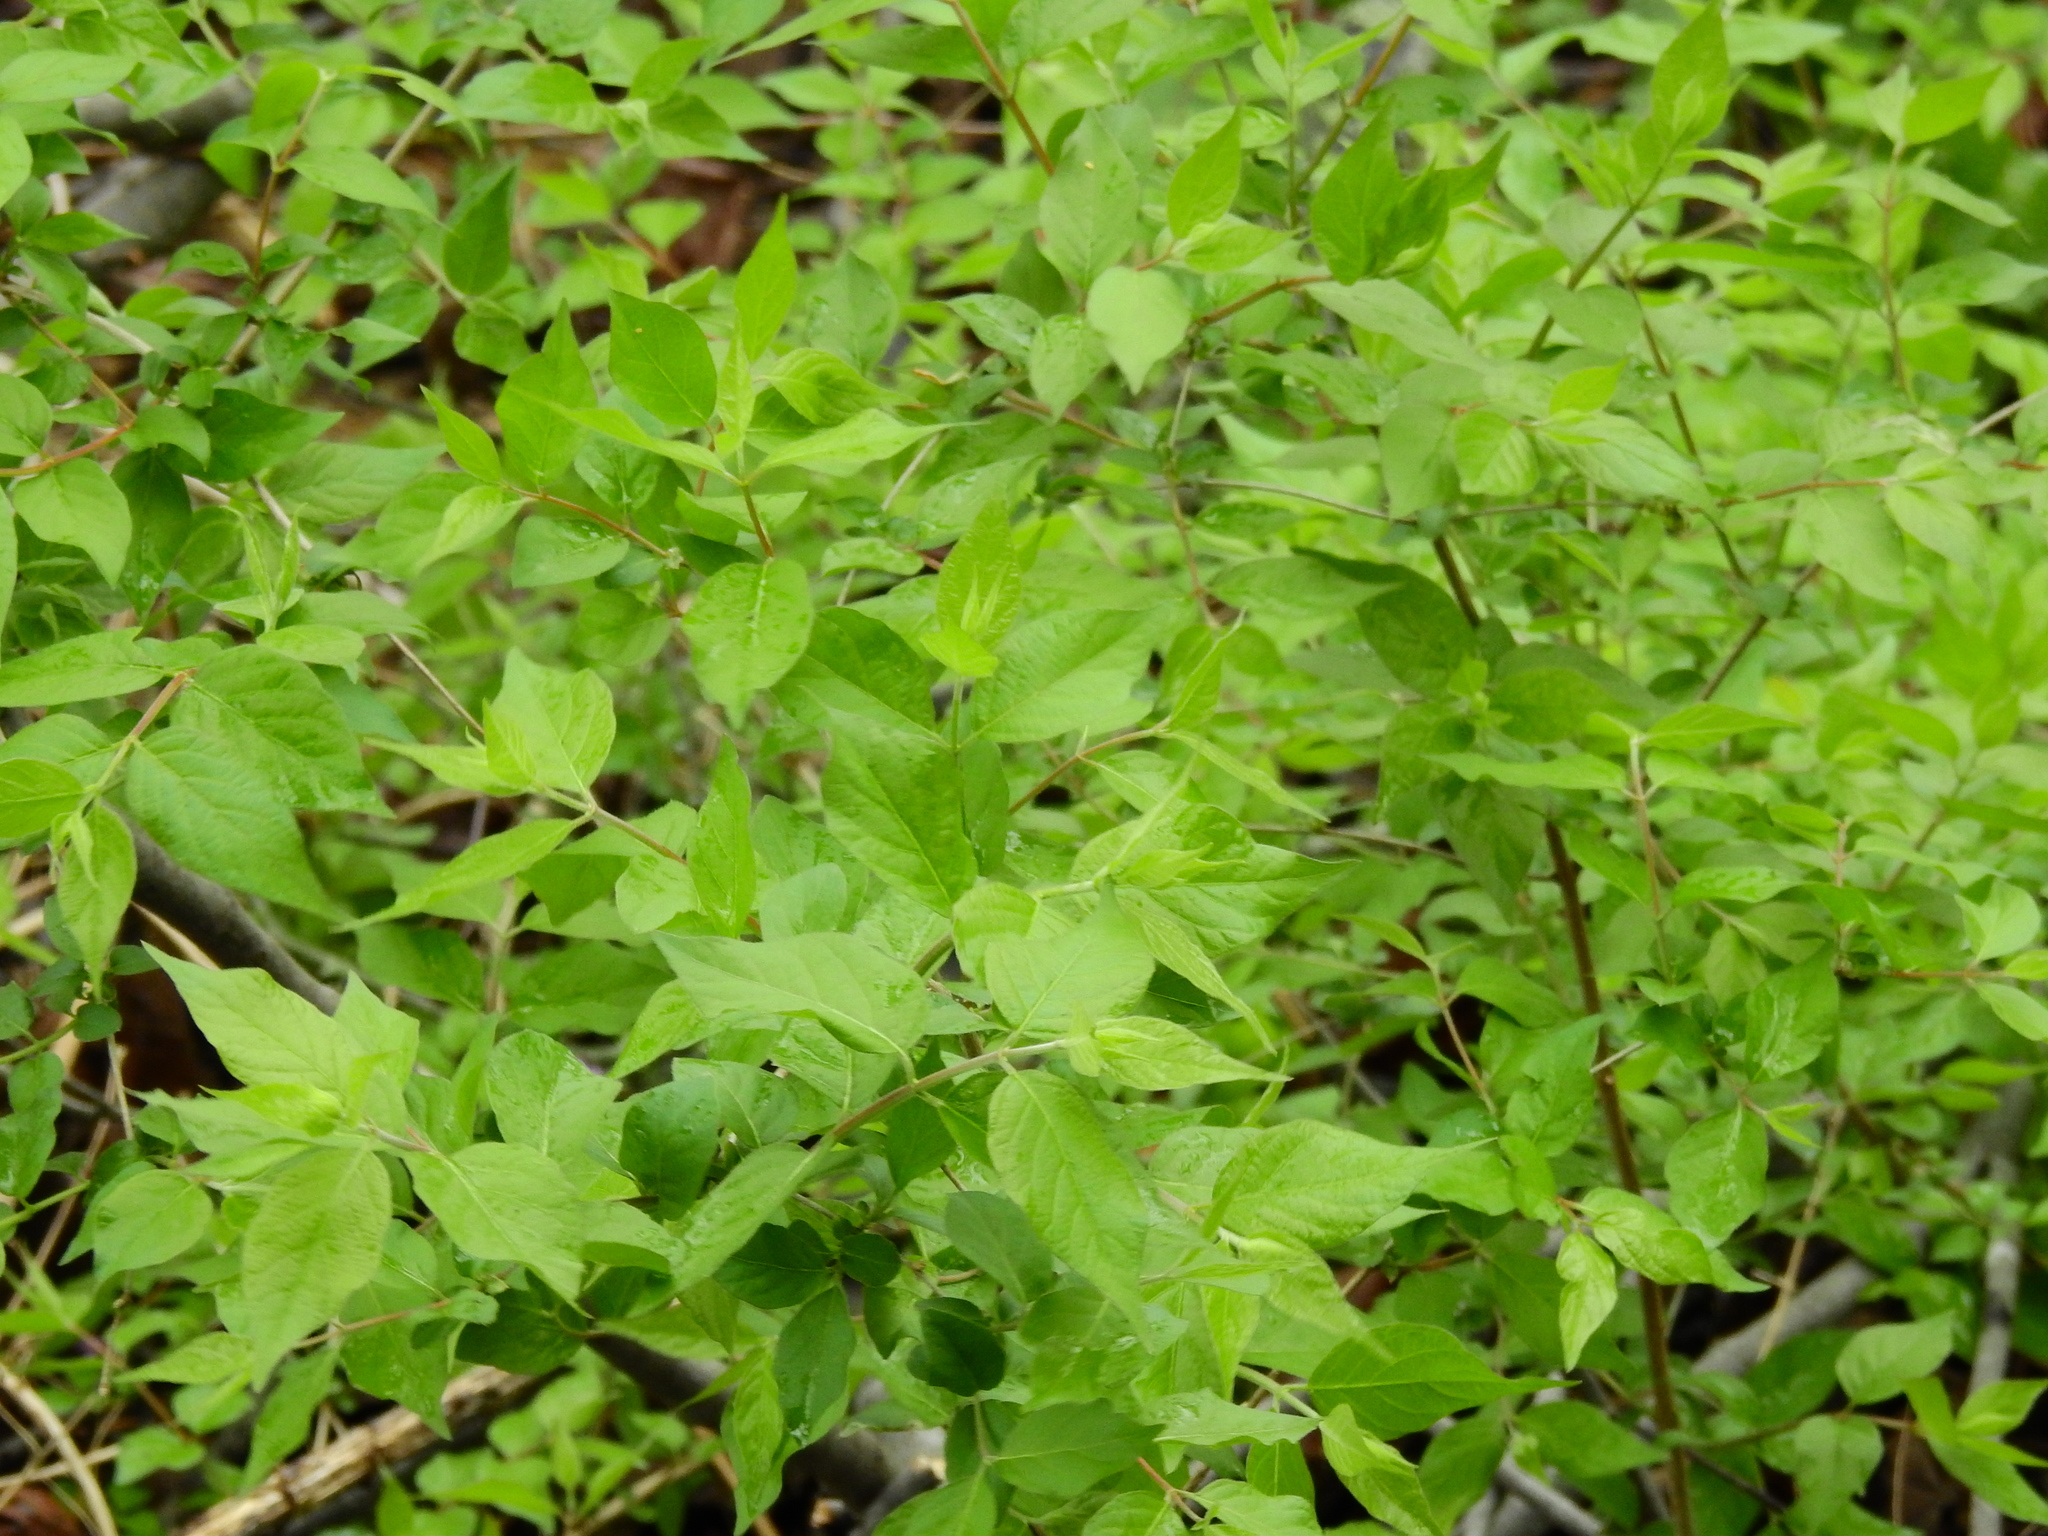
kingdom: Plantae
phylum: Tracheophyta
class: Magnoliopsida
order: Dipsacales
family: Caprifoliaceae
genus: Lonicera
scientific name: Lonicera maackii
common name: Amur honeysuckle
